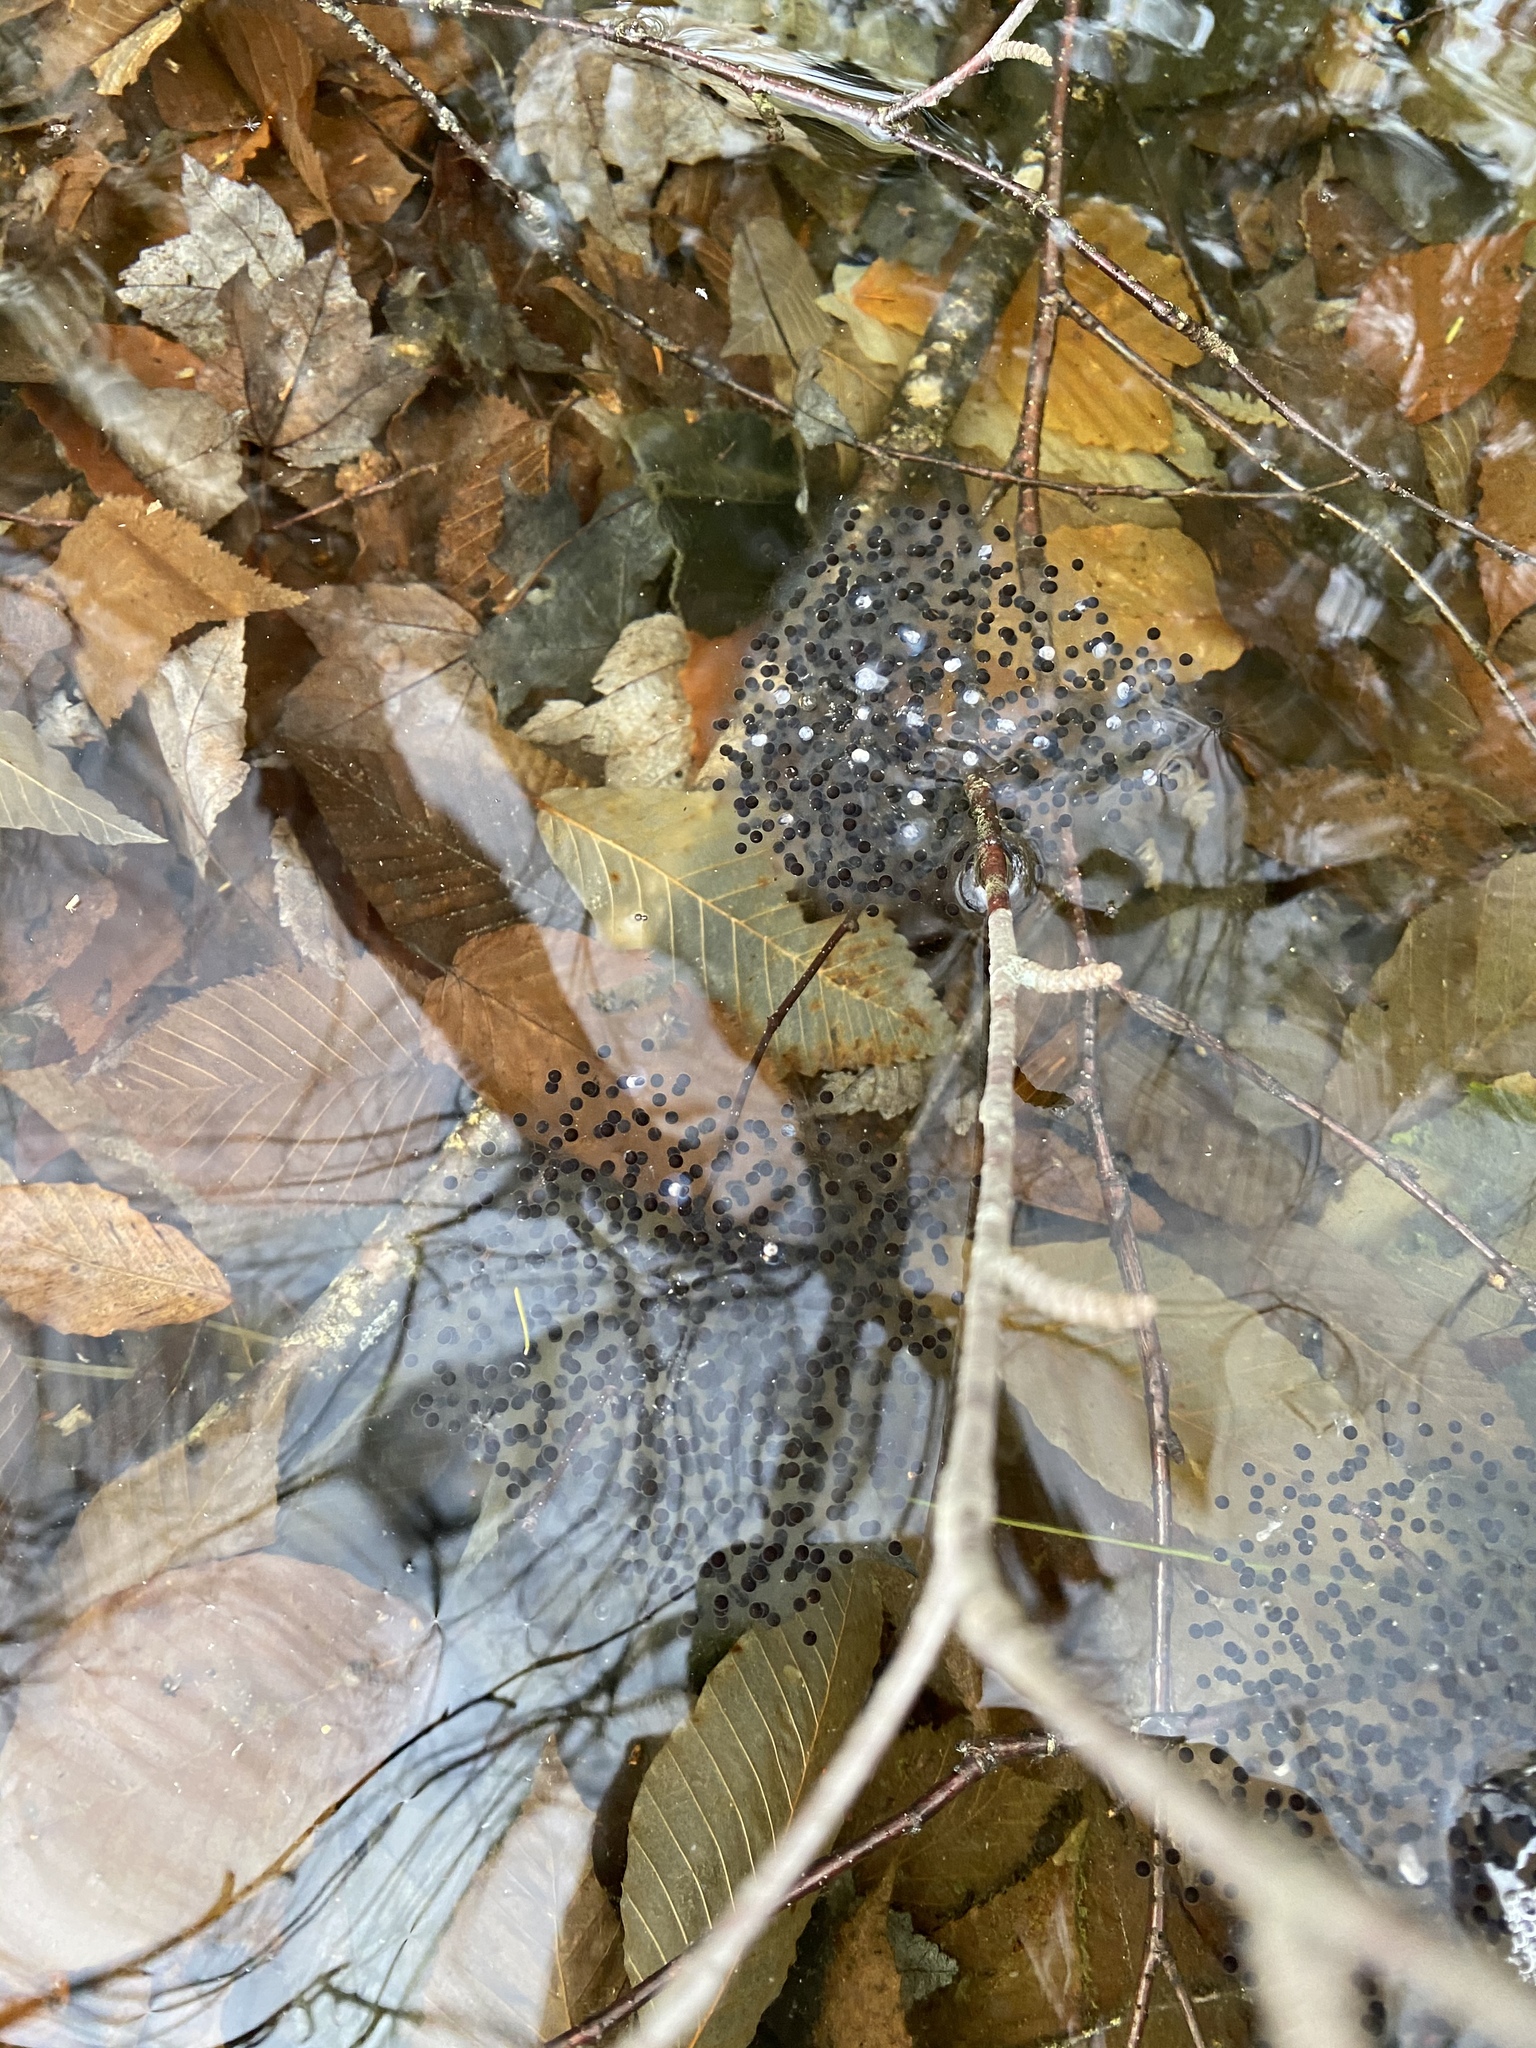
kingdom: Animalia
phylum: Chordata
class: Amphibia
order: Anura
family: Ranidae
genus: Lithobates
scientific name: Lithobates sylvaticus
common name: Wood frog
